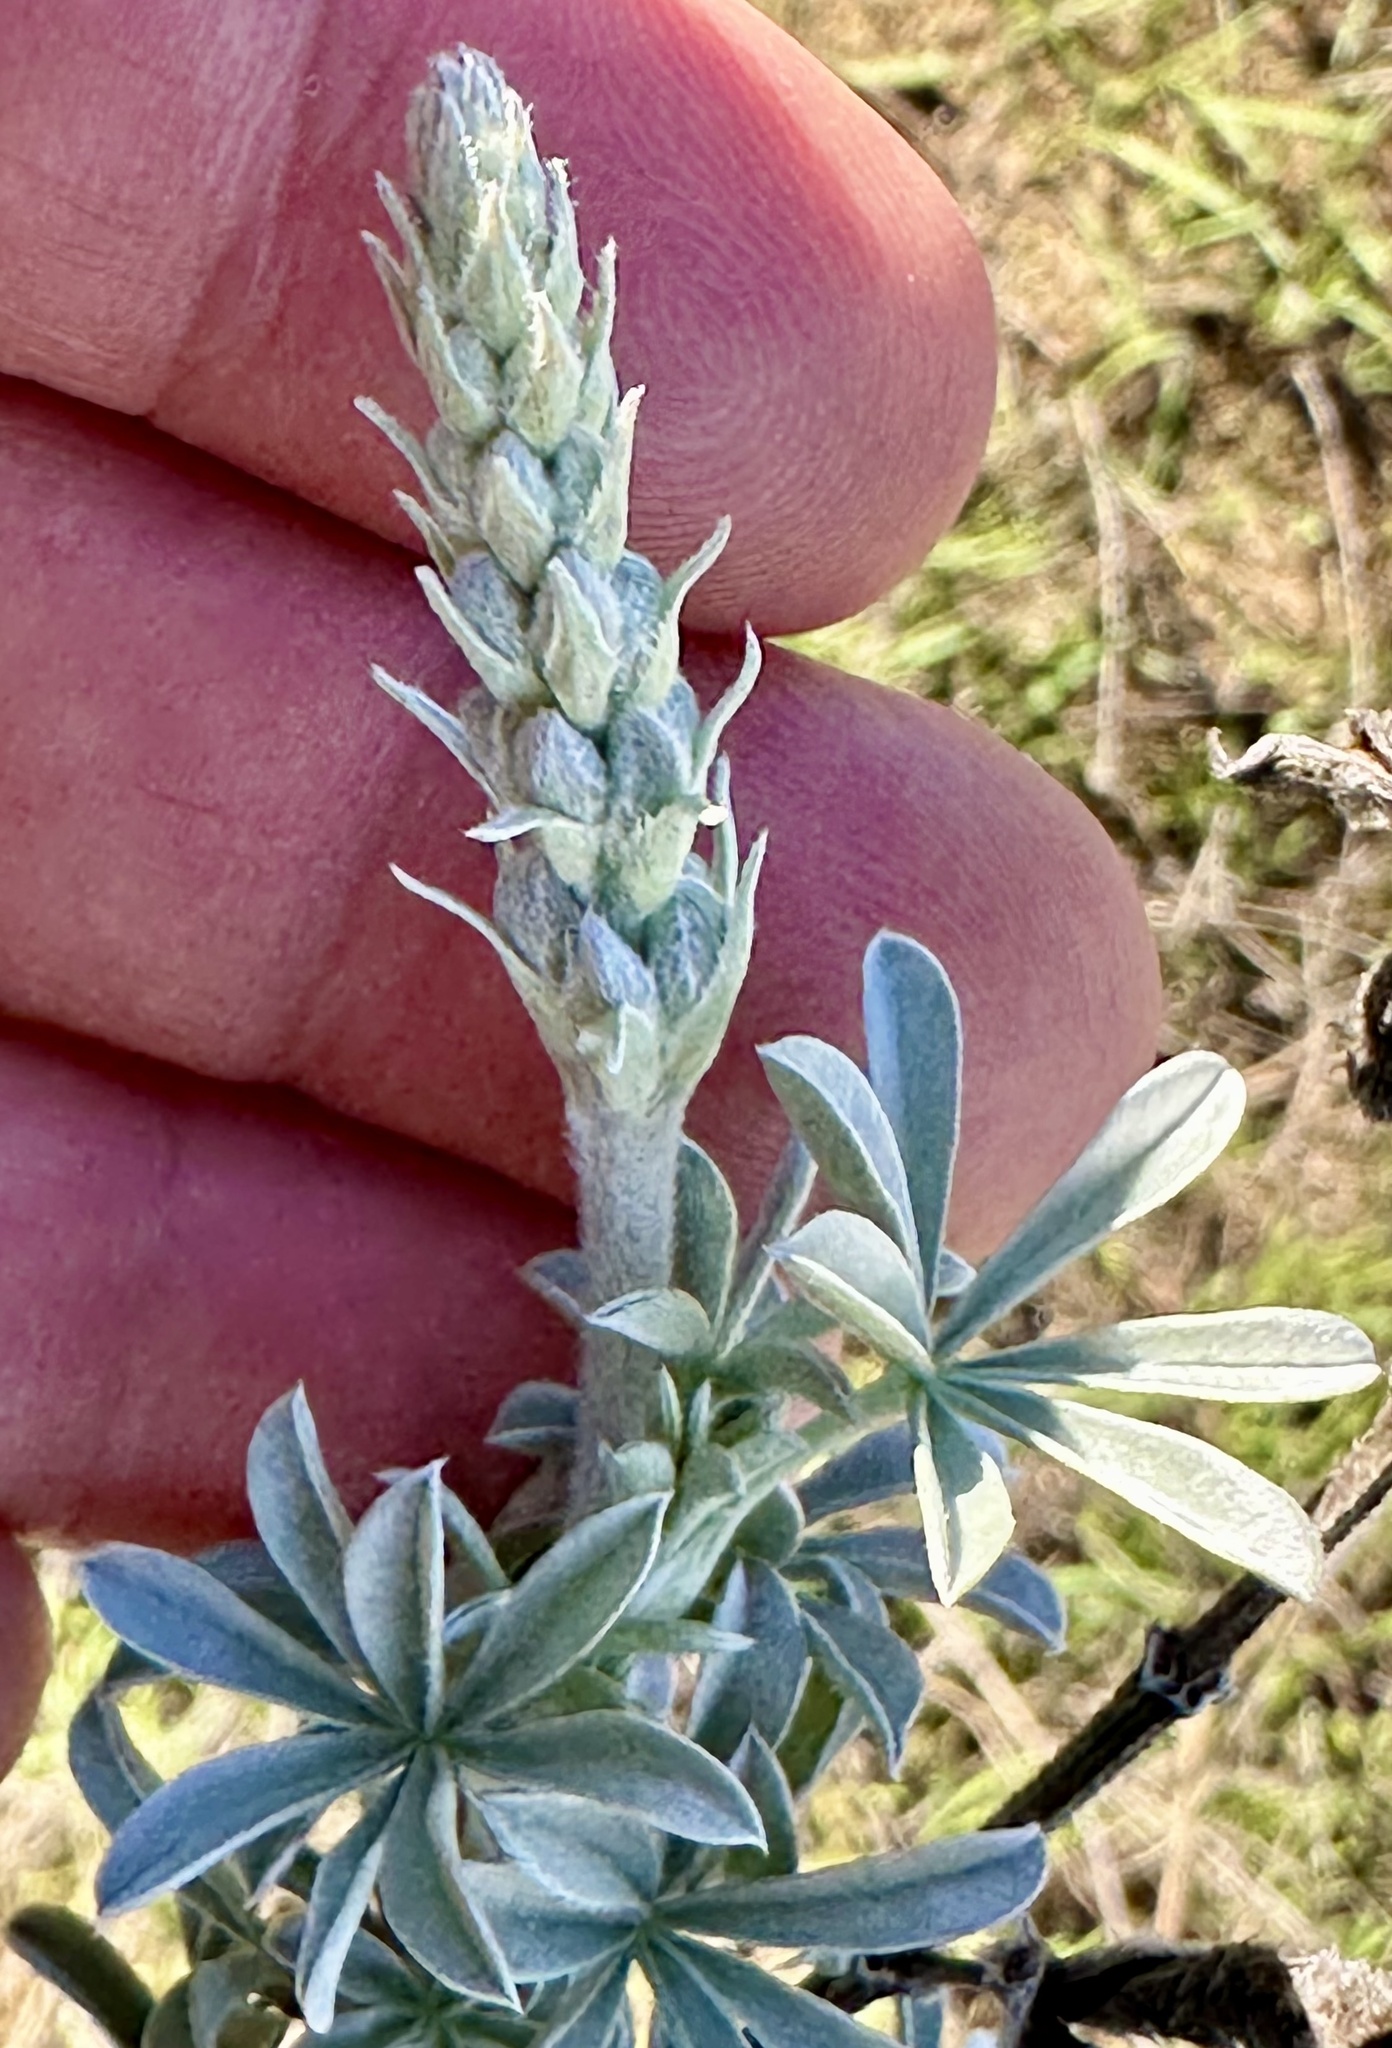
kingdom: Plantae
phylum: Tracheophyta
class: Magnoliopsida
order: Fabales
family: Fabaceae
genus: Lupinus
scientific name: Lupinus chamissonis
